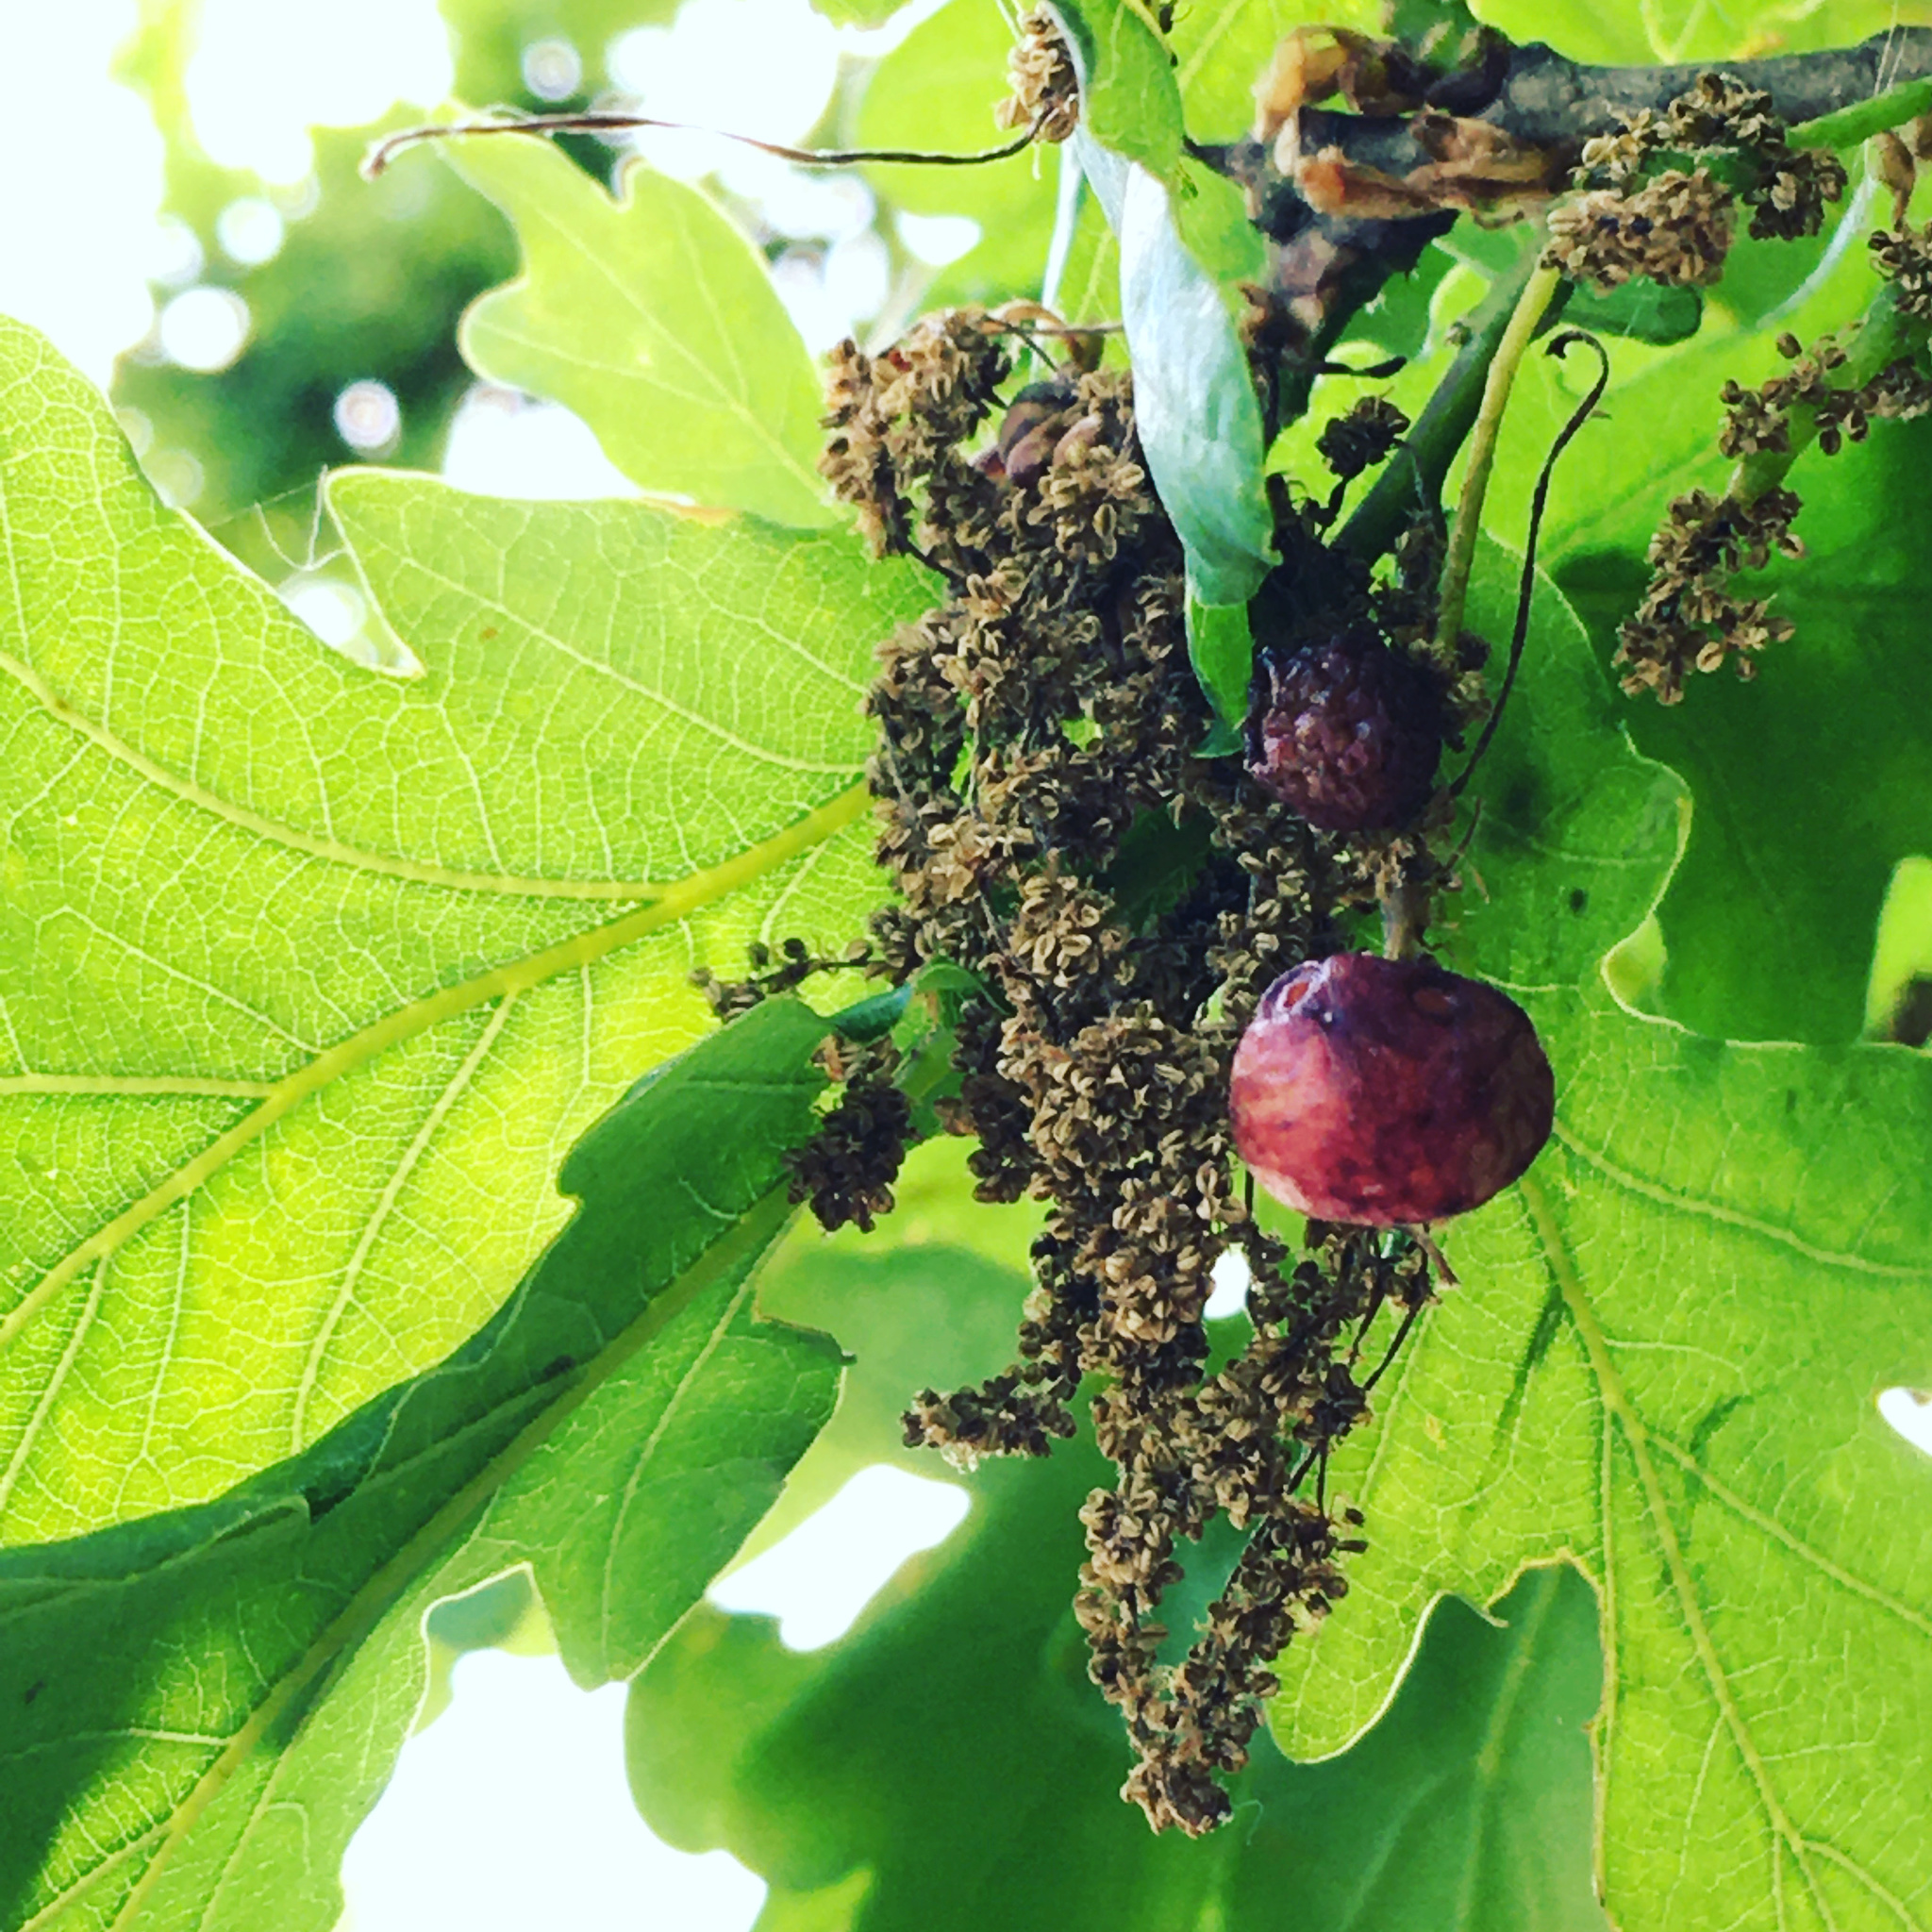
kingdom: Animalia
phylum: Arthropoda
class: Insecta
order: Hymenoptera
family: Cynipidae
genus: Neuroterus
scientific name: Neuroterus quercusbaccarum
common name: Common spangle gall
